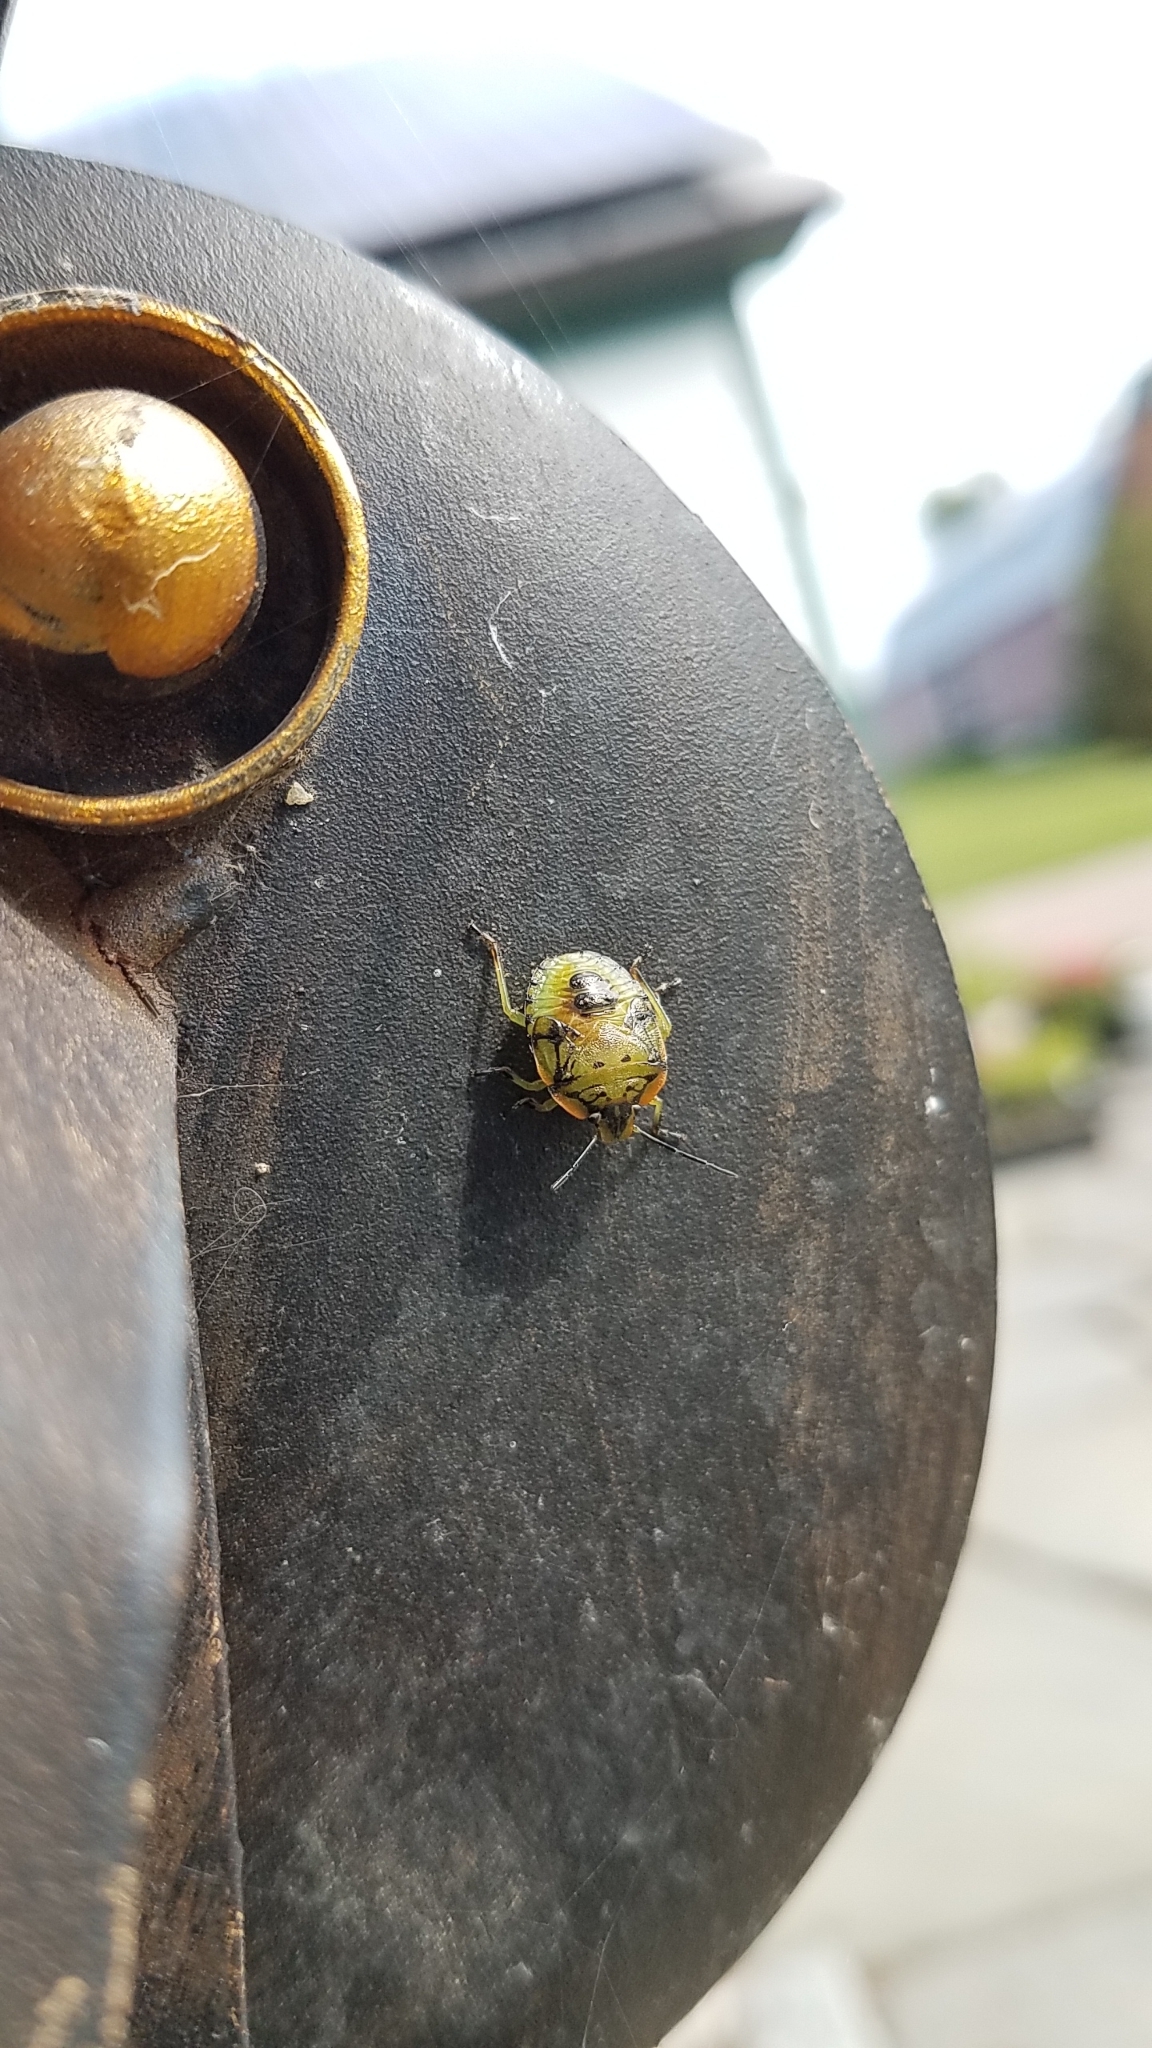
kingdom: Animalia
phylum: Arthropoda
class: Insecta
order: Hemiptera
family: Pentatomidae
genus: Chinavia
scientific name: Chinavia hilaris
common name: Green stink bug
